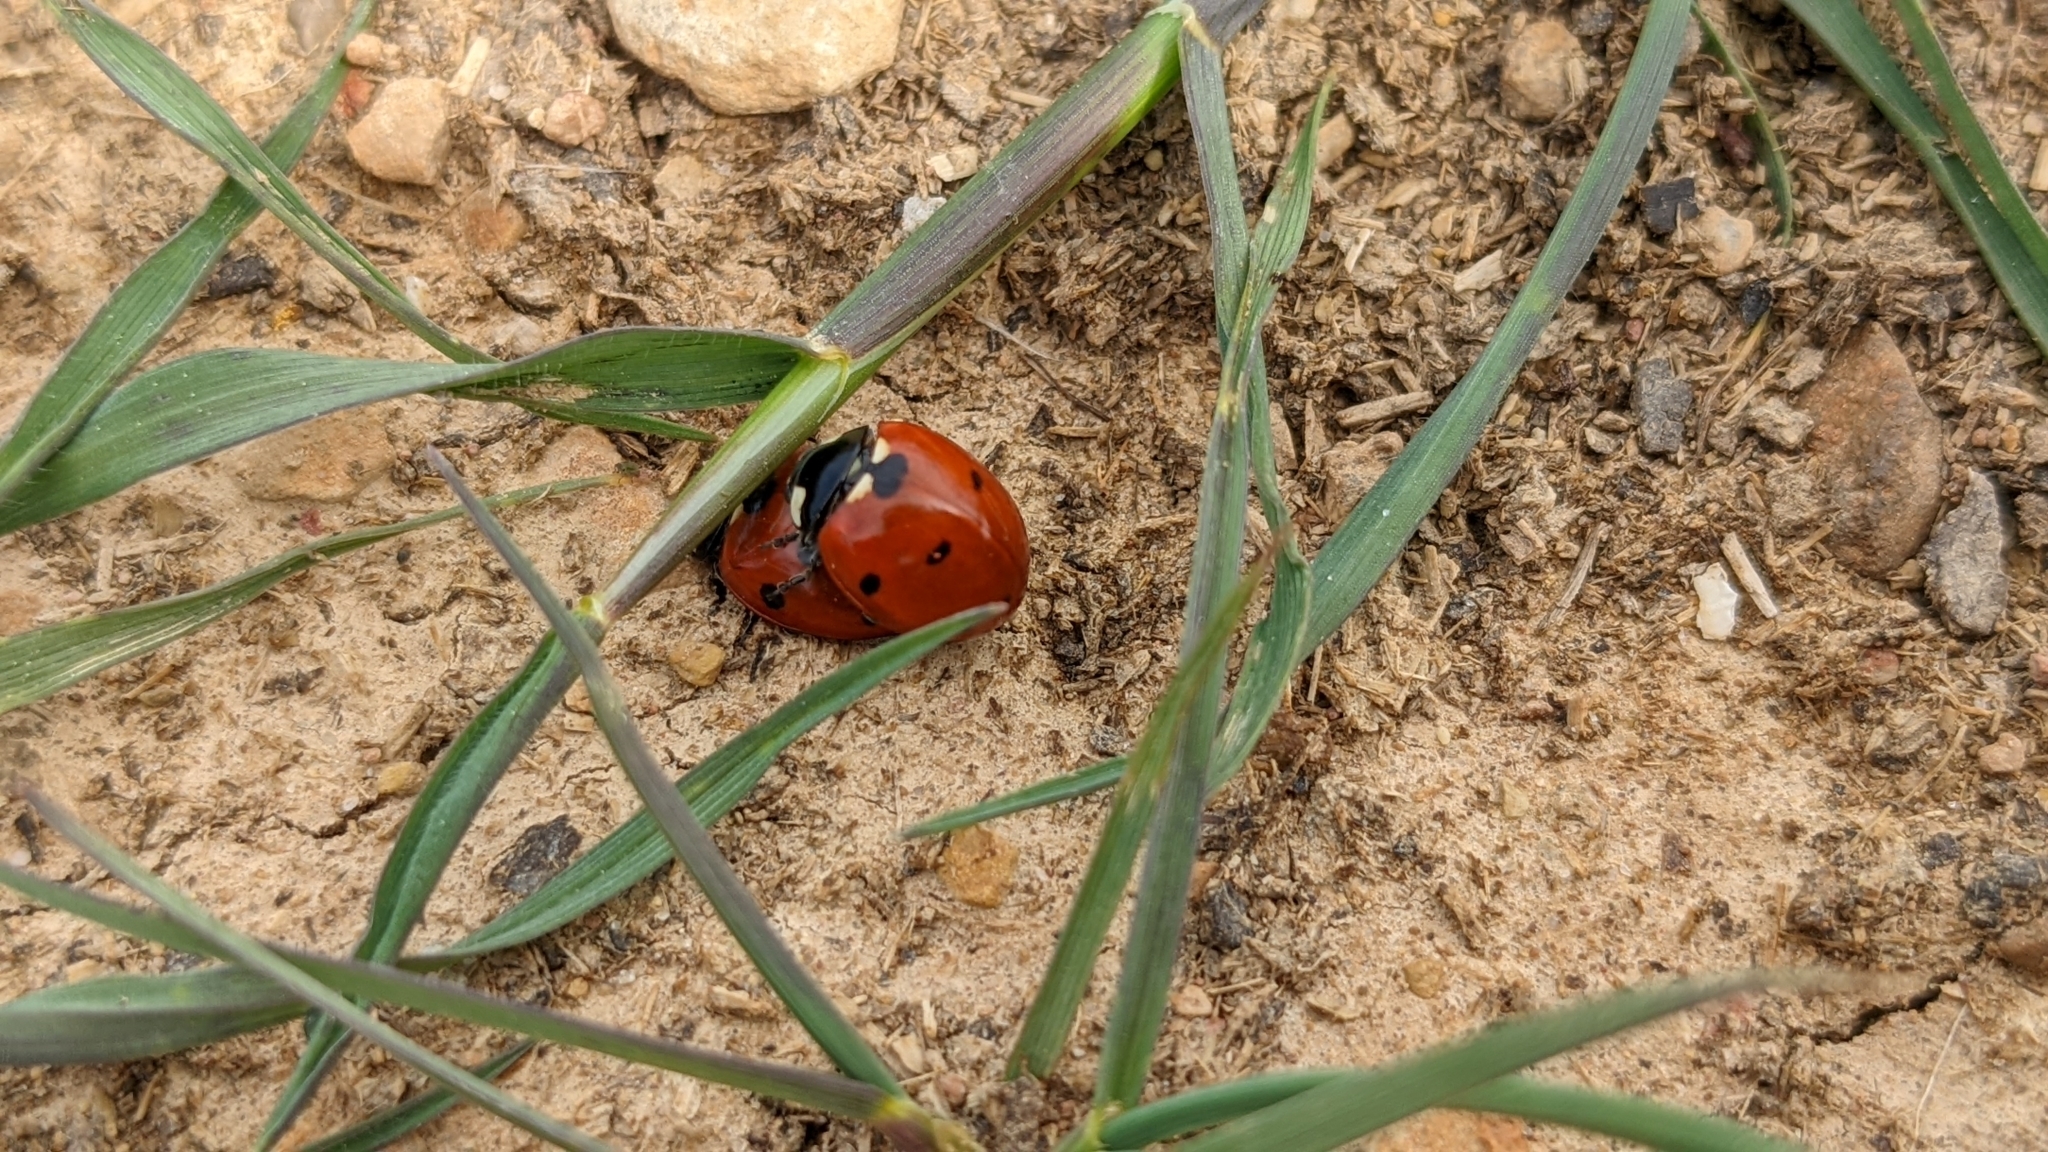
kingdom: Animalia
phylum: Arthropoda
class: Insecta
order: Coleoptera
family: Coccinellidae
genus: Coccinella
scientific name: Coccinella septempunctata
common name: Sevenspotted lady beetle
